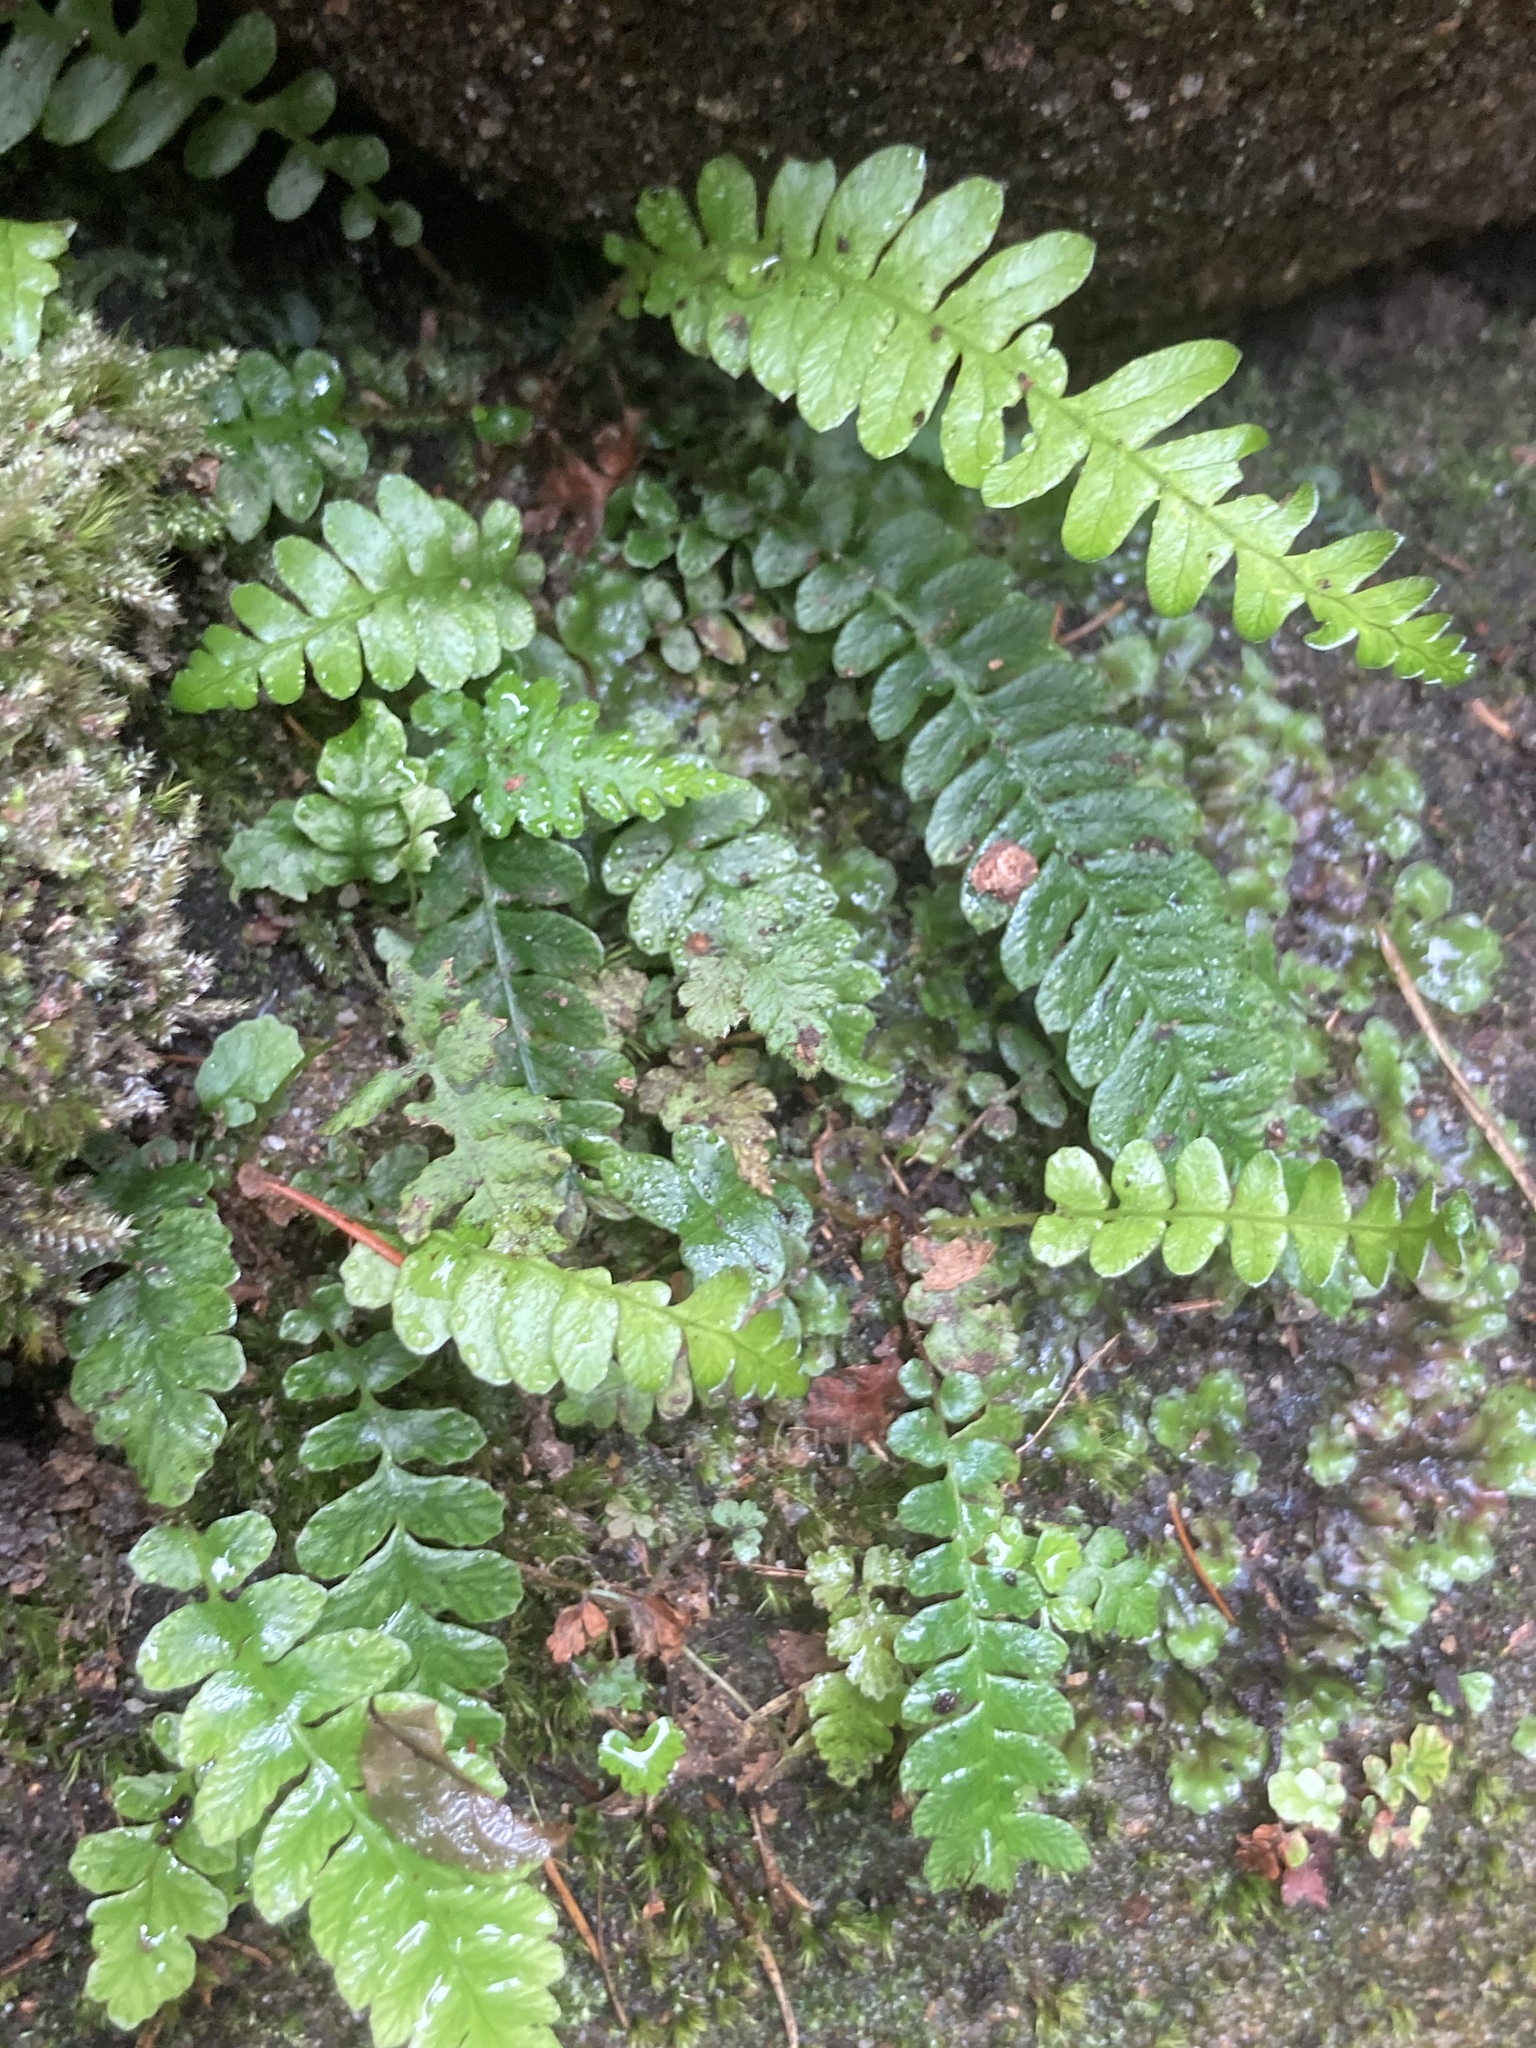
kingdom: Plantae
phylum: Tracheophyta
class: Polypodiopsida
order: Polypodiales
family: Blechnaceae
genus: Struthiopteris
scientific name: Struthiopteris spicant
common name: Deer fern
